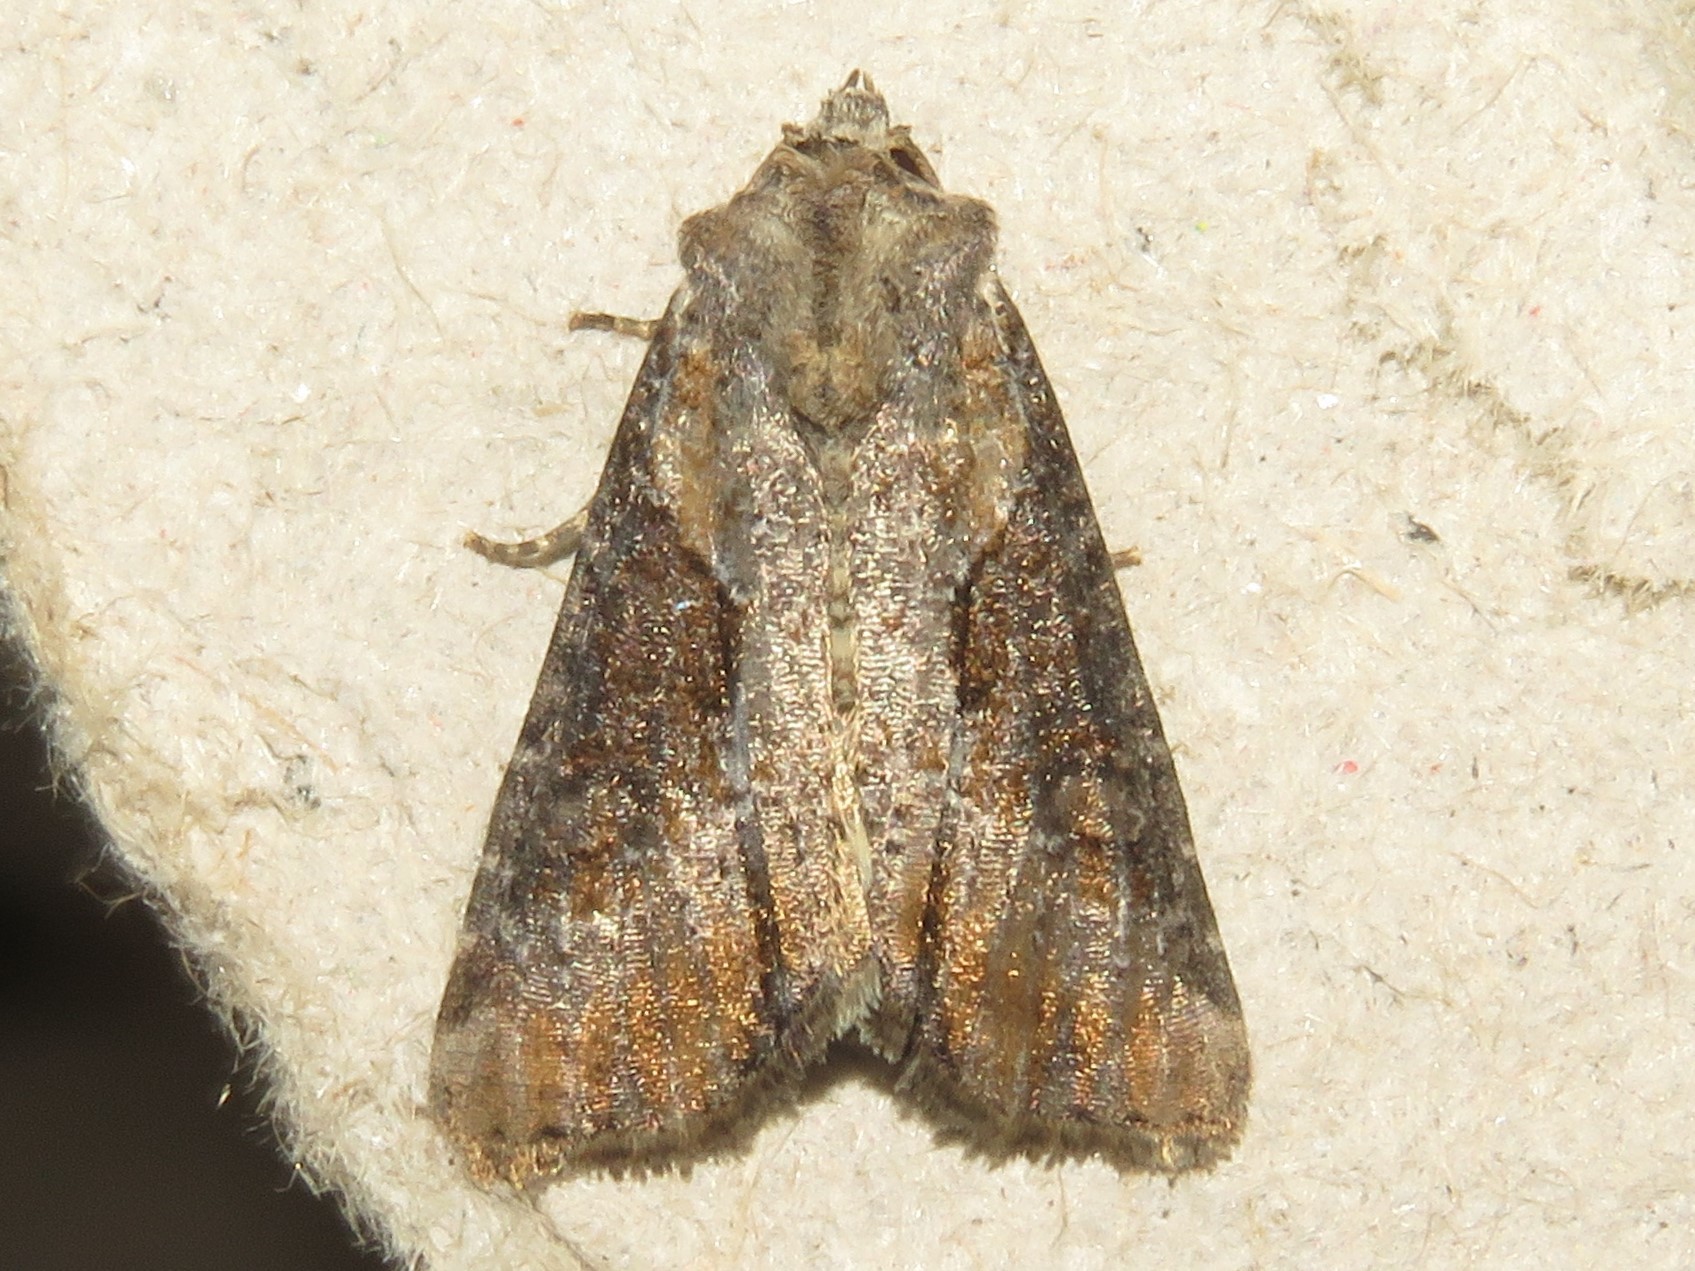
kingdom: Animalia
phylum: Arthropoda
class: Insecta
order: Lepidoptera
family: Noctuidae
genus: Lateroligia
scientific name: Lateroligia ophiogramma
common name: Double lobed
